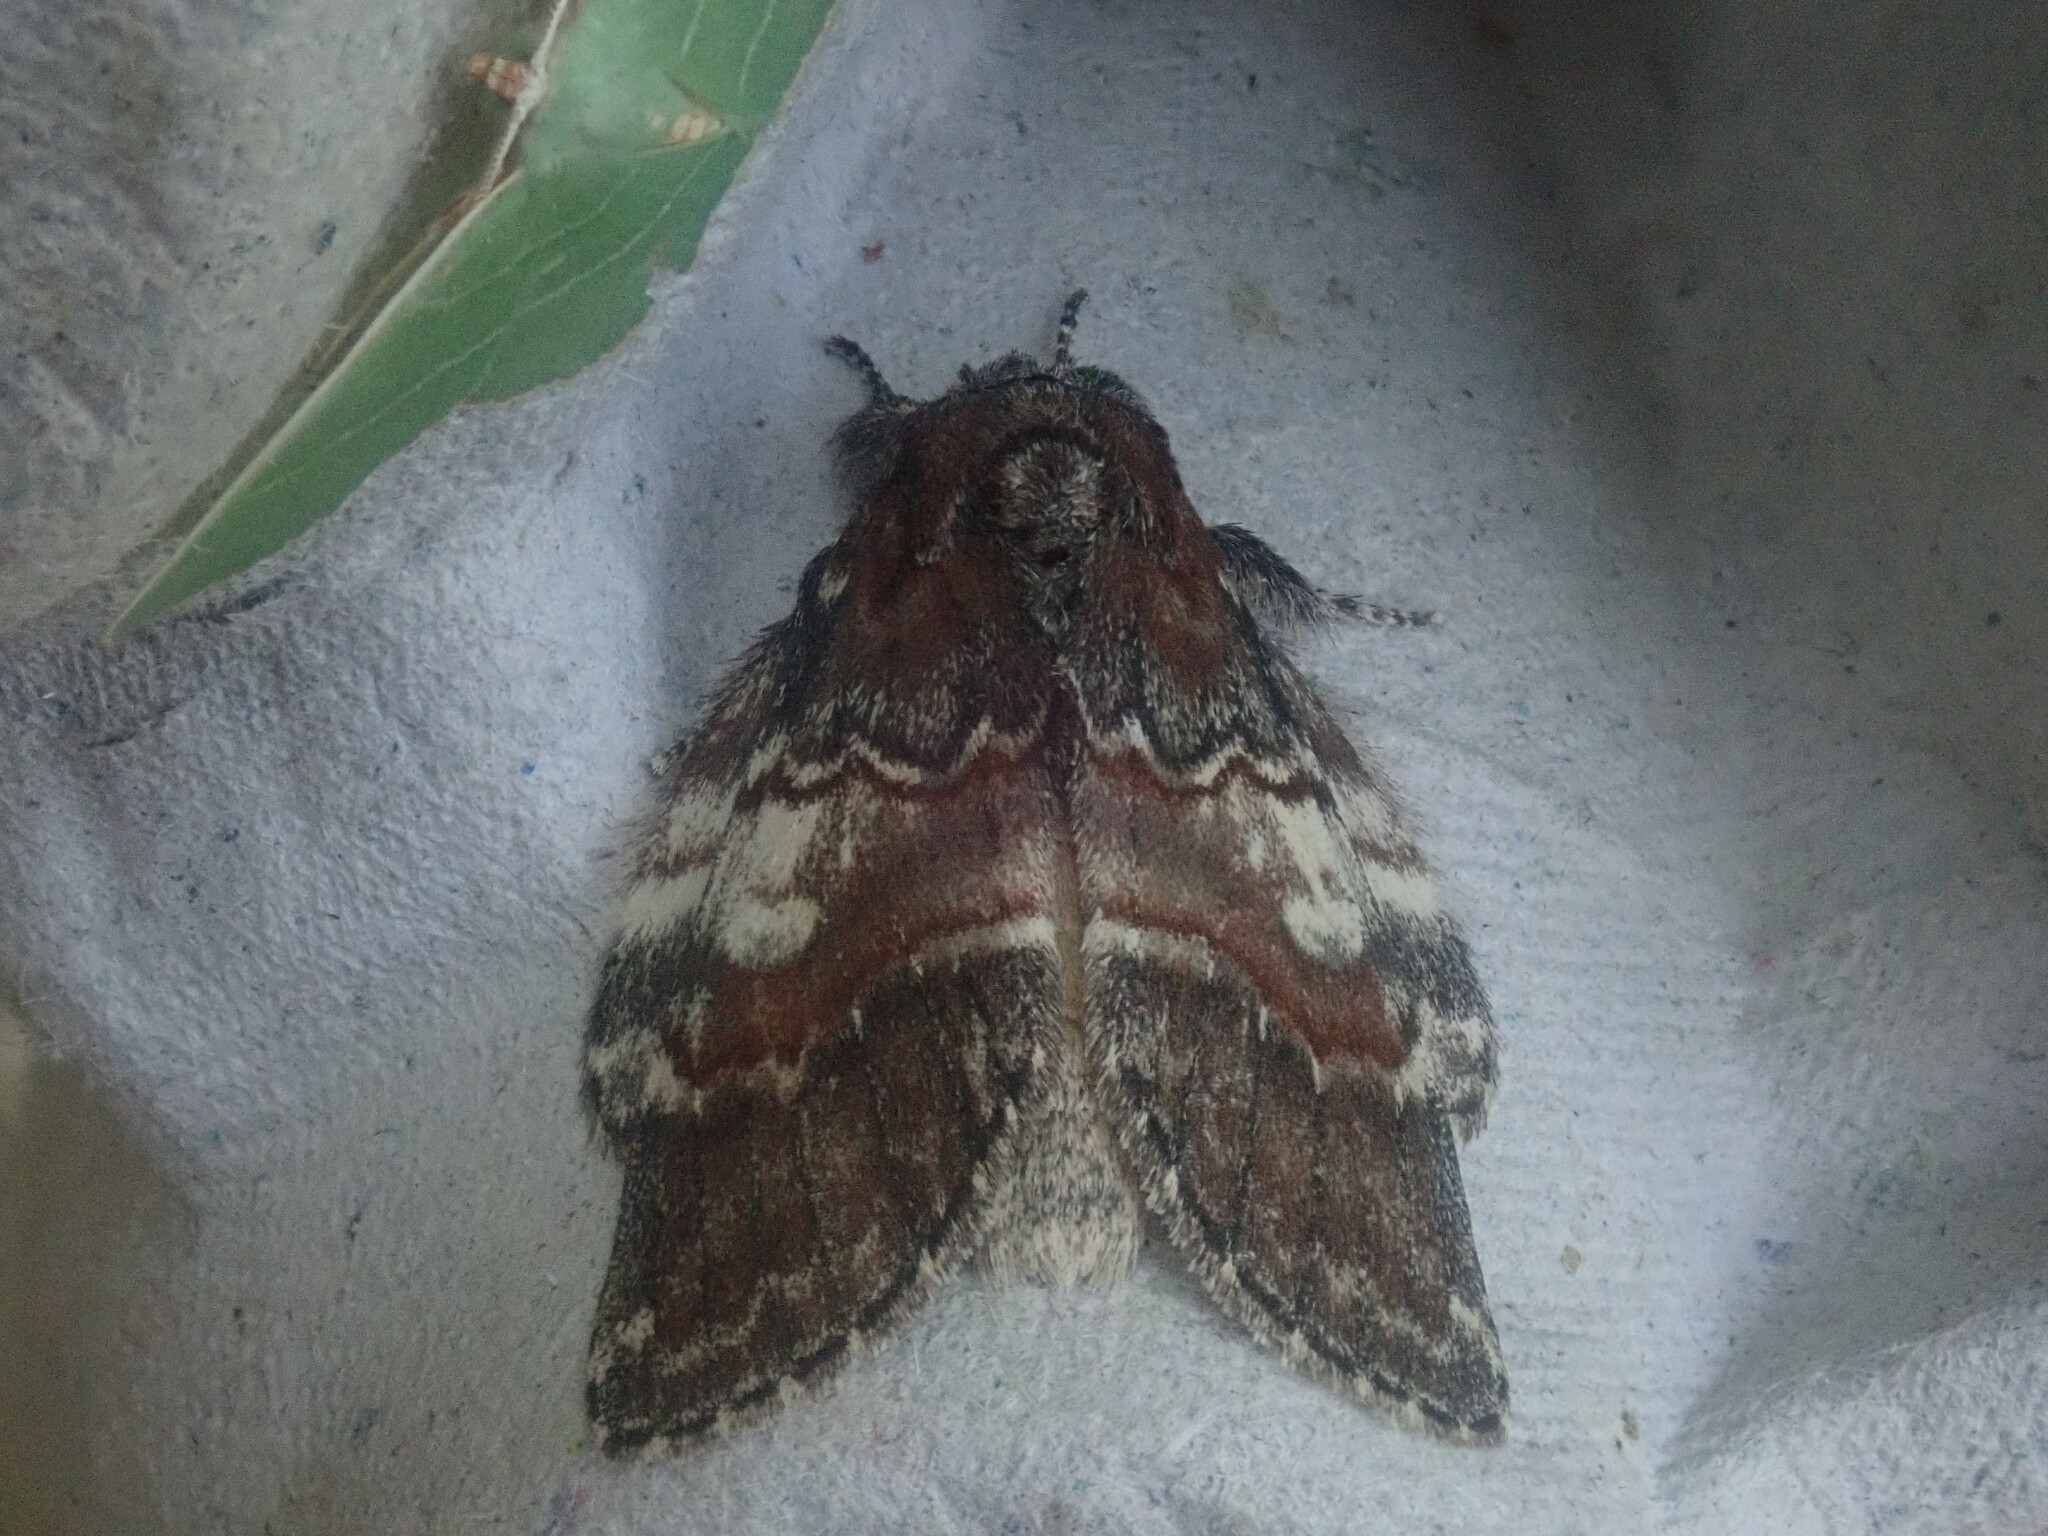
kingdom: Animalia
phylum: Arthropoda
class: Insecta
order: Lepidoptera
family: Notodontidae
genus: Peridea
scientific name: Peridea ferruginea
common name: Chocolate prominent
